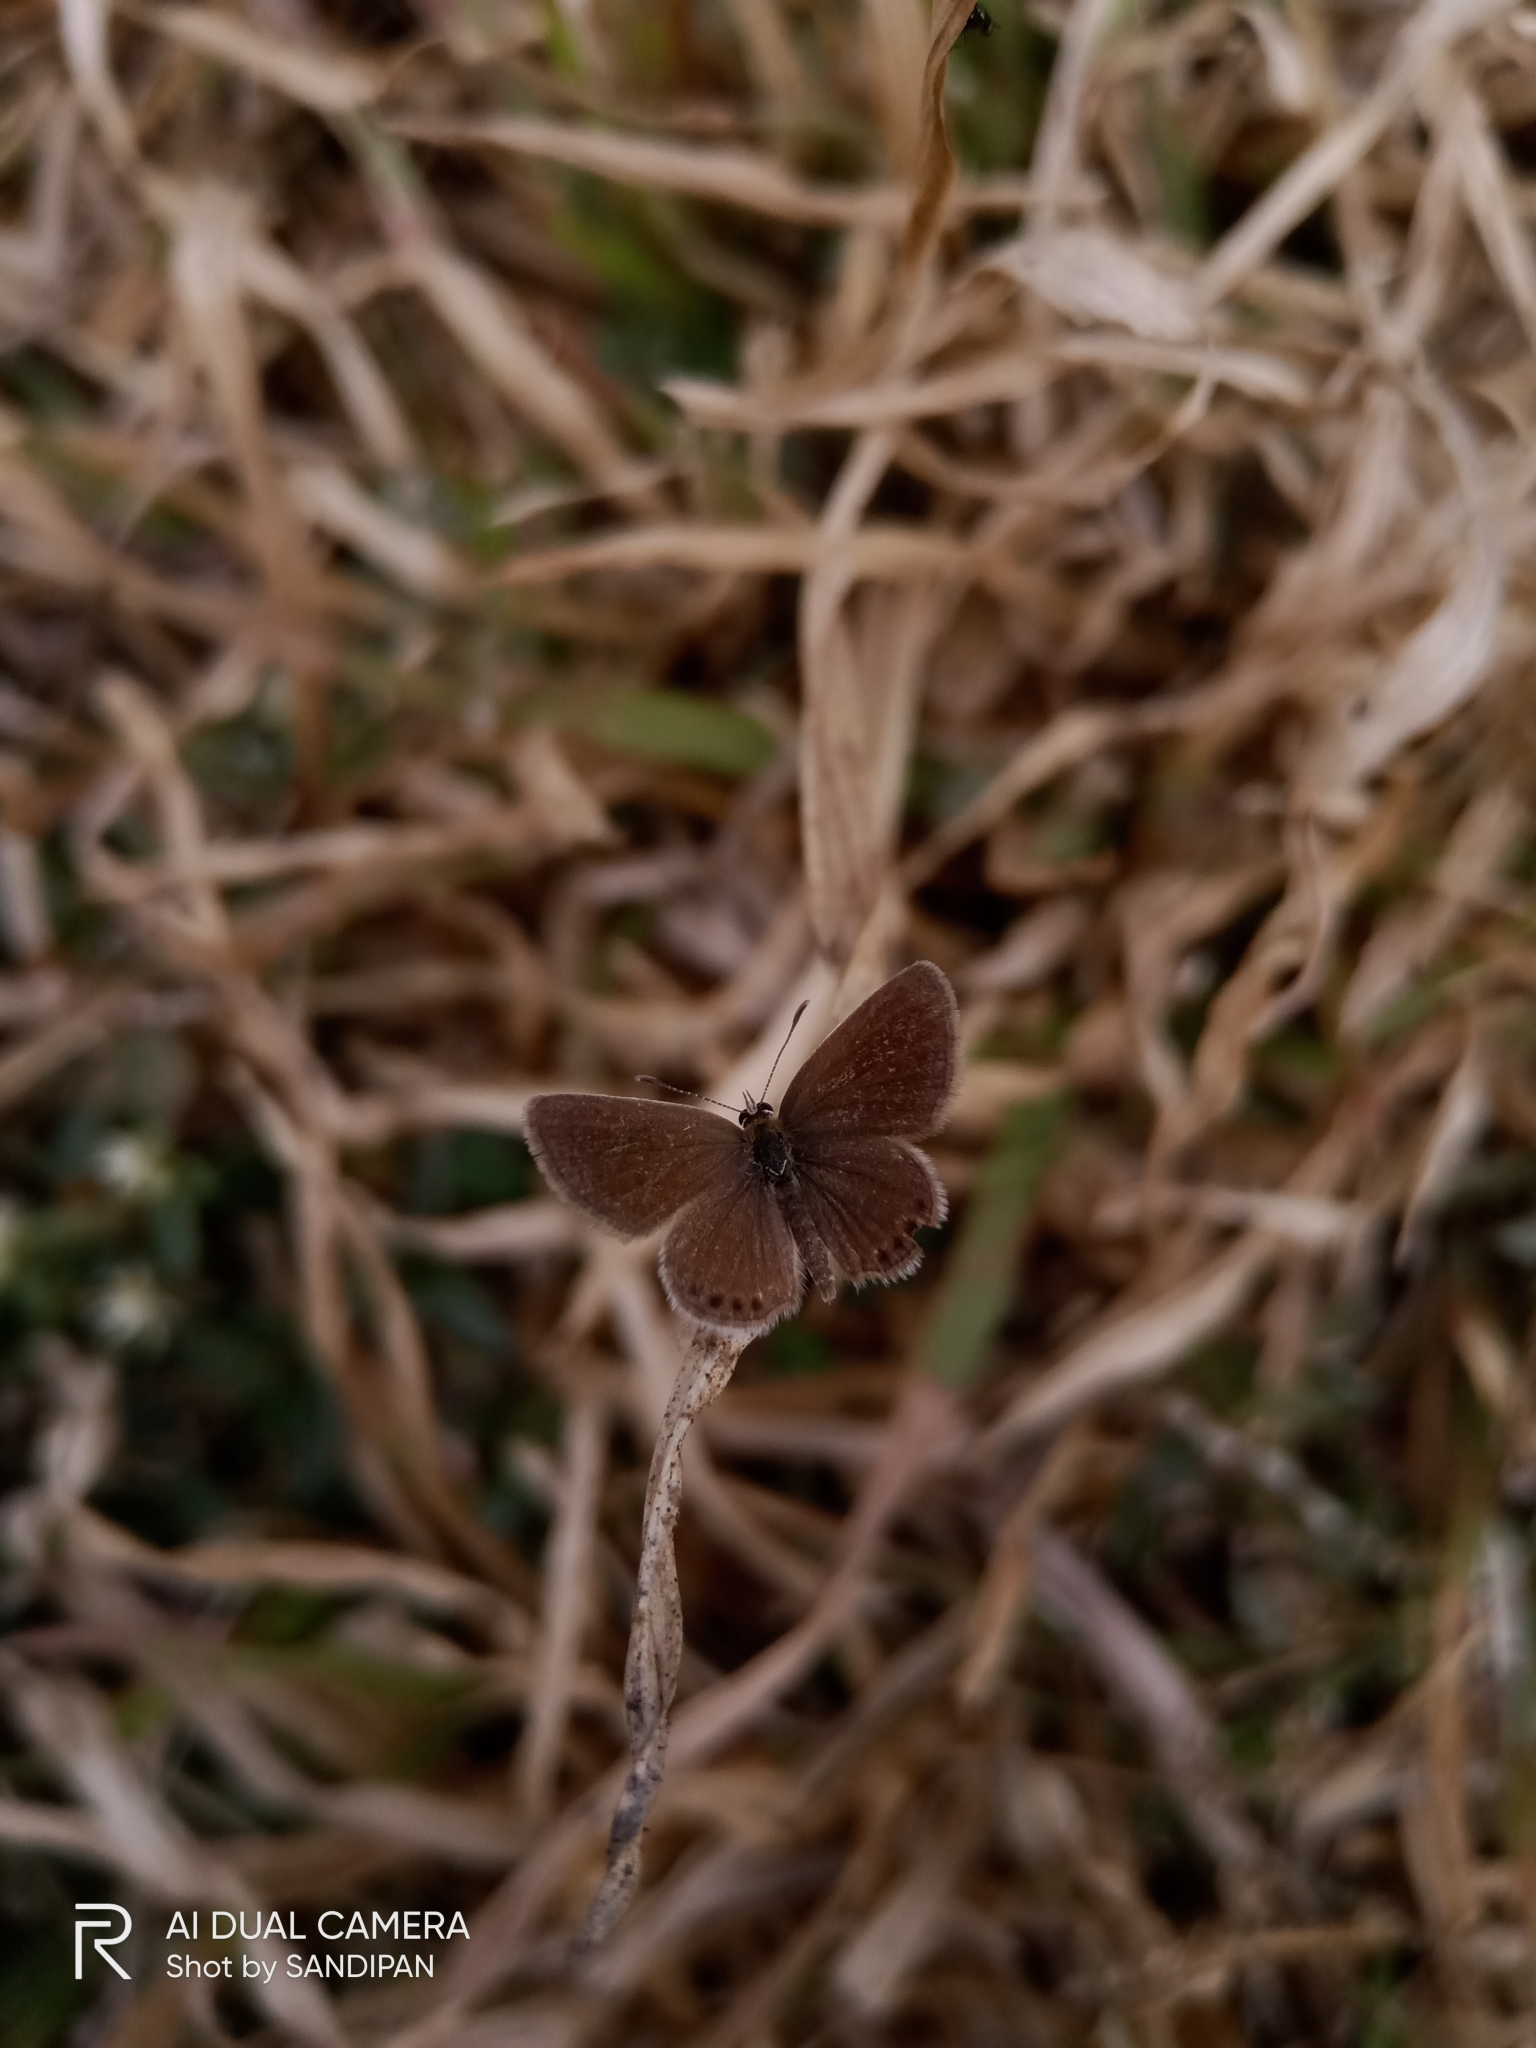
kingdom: Animalia
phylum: Arthropoda
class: Insecta
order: Lepidoptera
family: Lycaenidae
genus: Freyeria
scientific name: Freyeria putli
